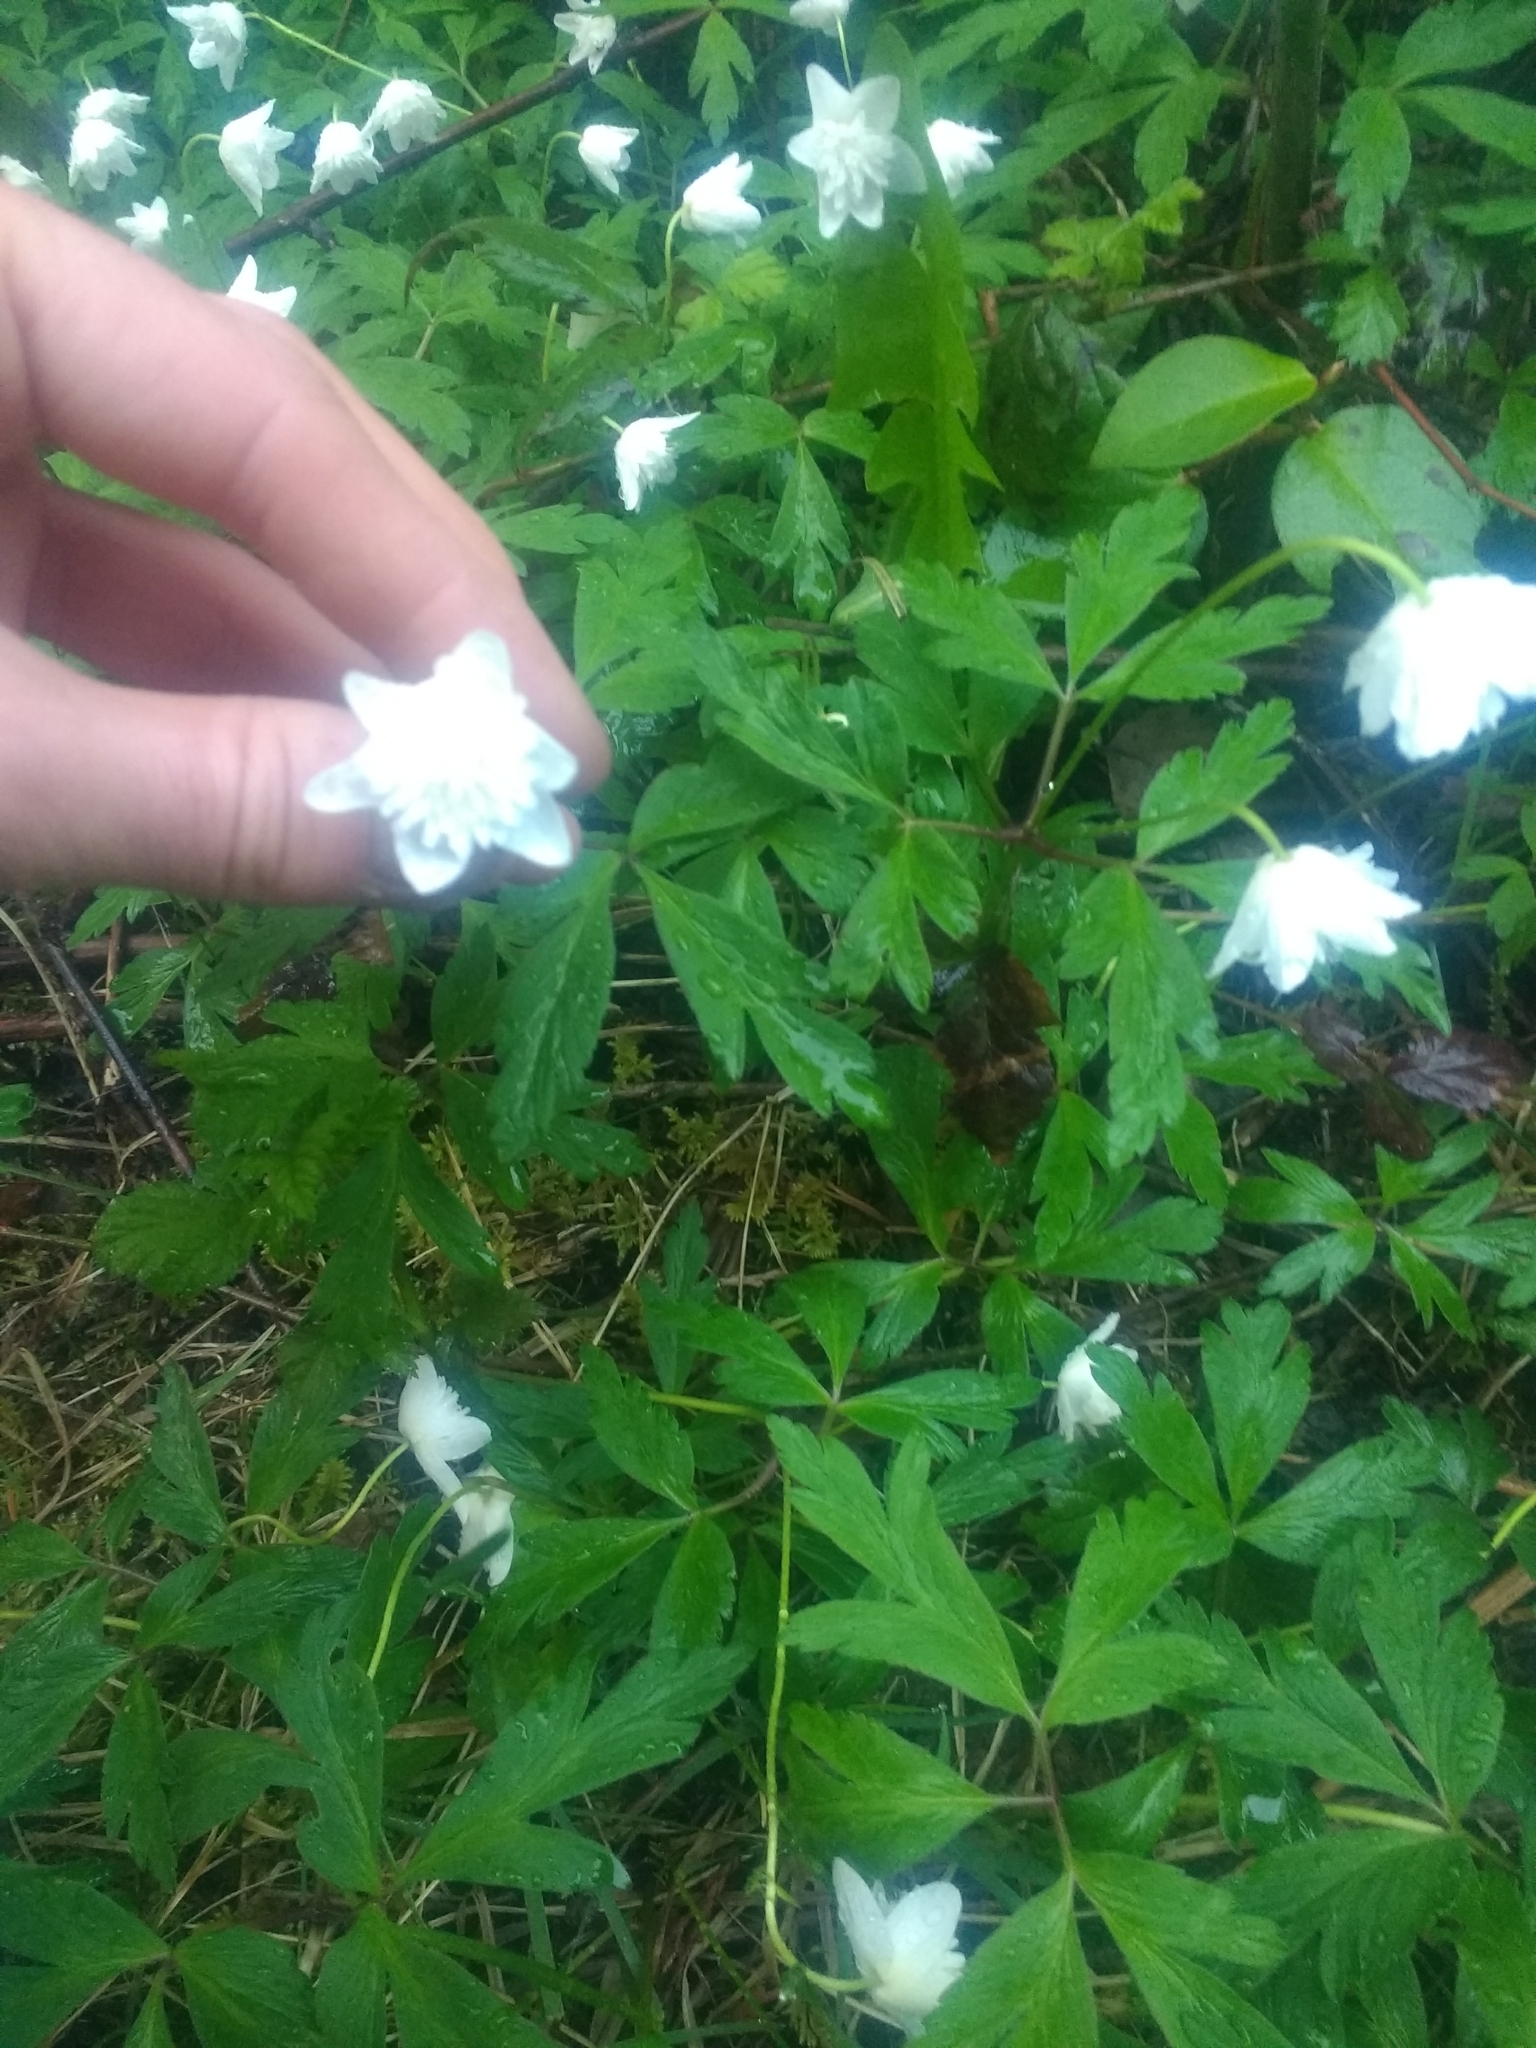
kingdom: Plantae
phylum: Tracheophyta
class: Magnoliopsida
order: Ranunculales
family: Ranunculaceae
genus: Anemone
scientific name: Anemone nemorosa
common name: Wood anemone
